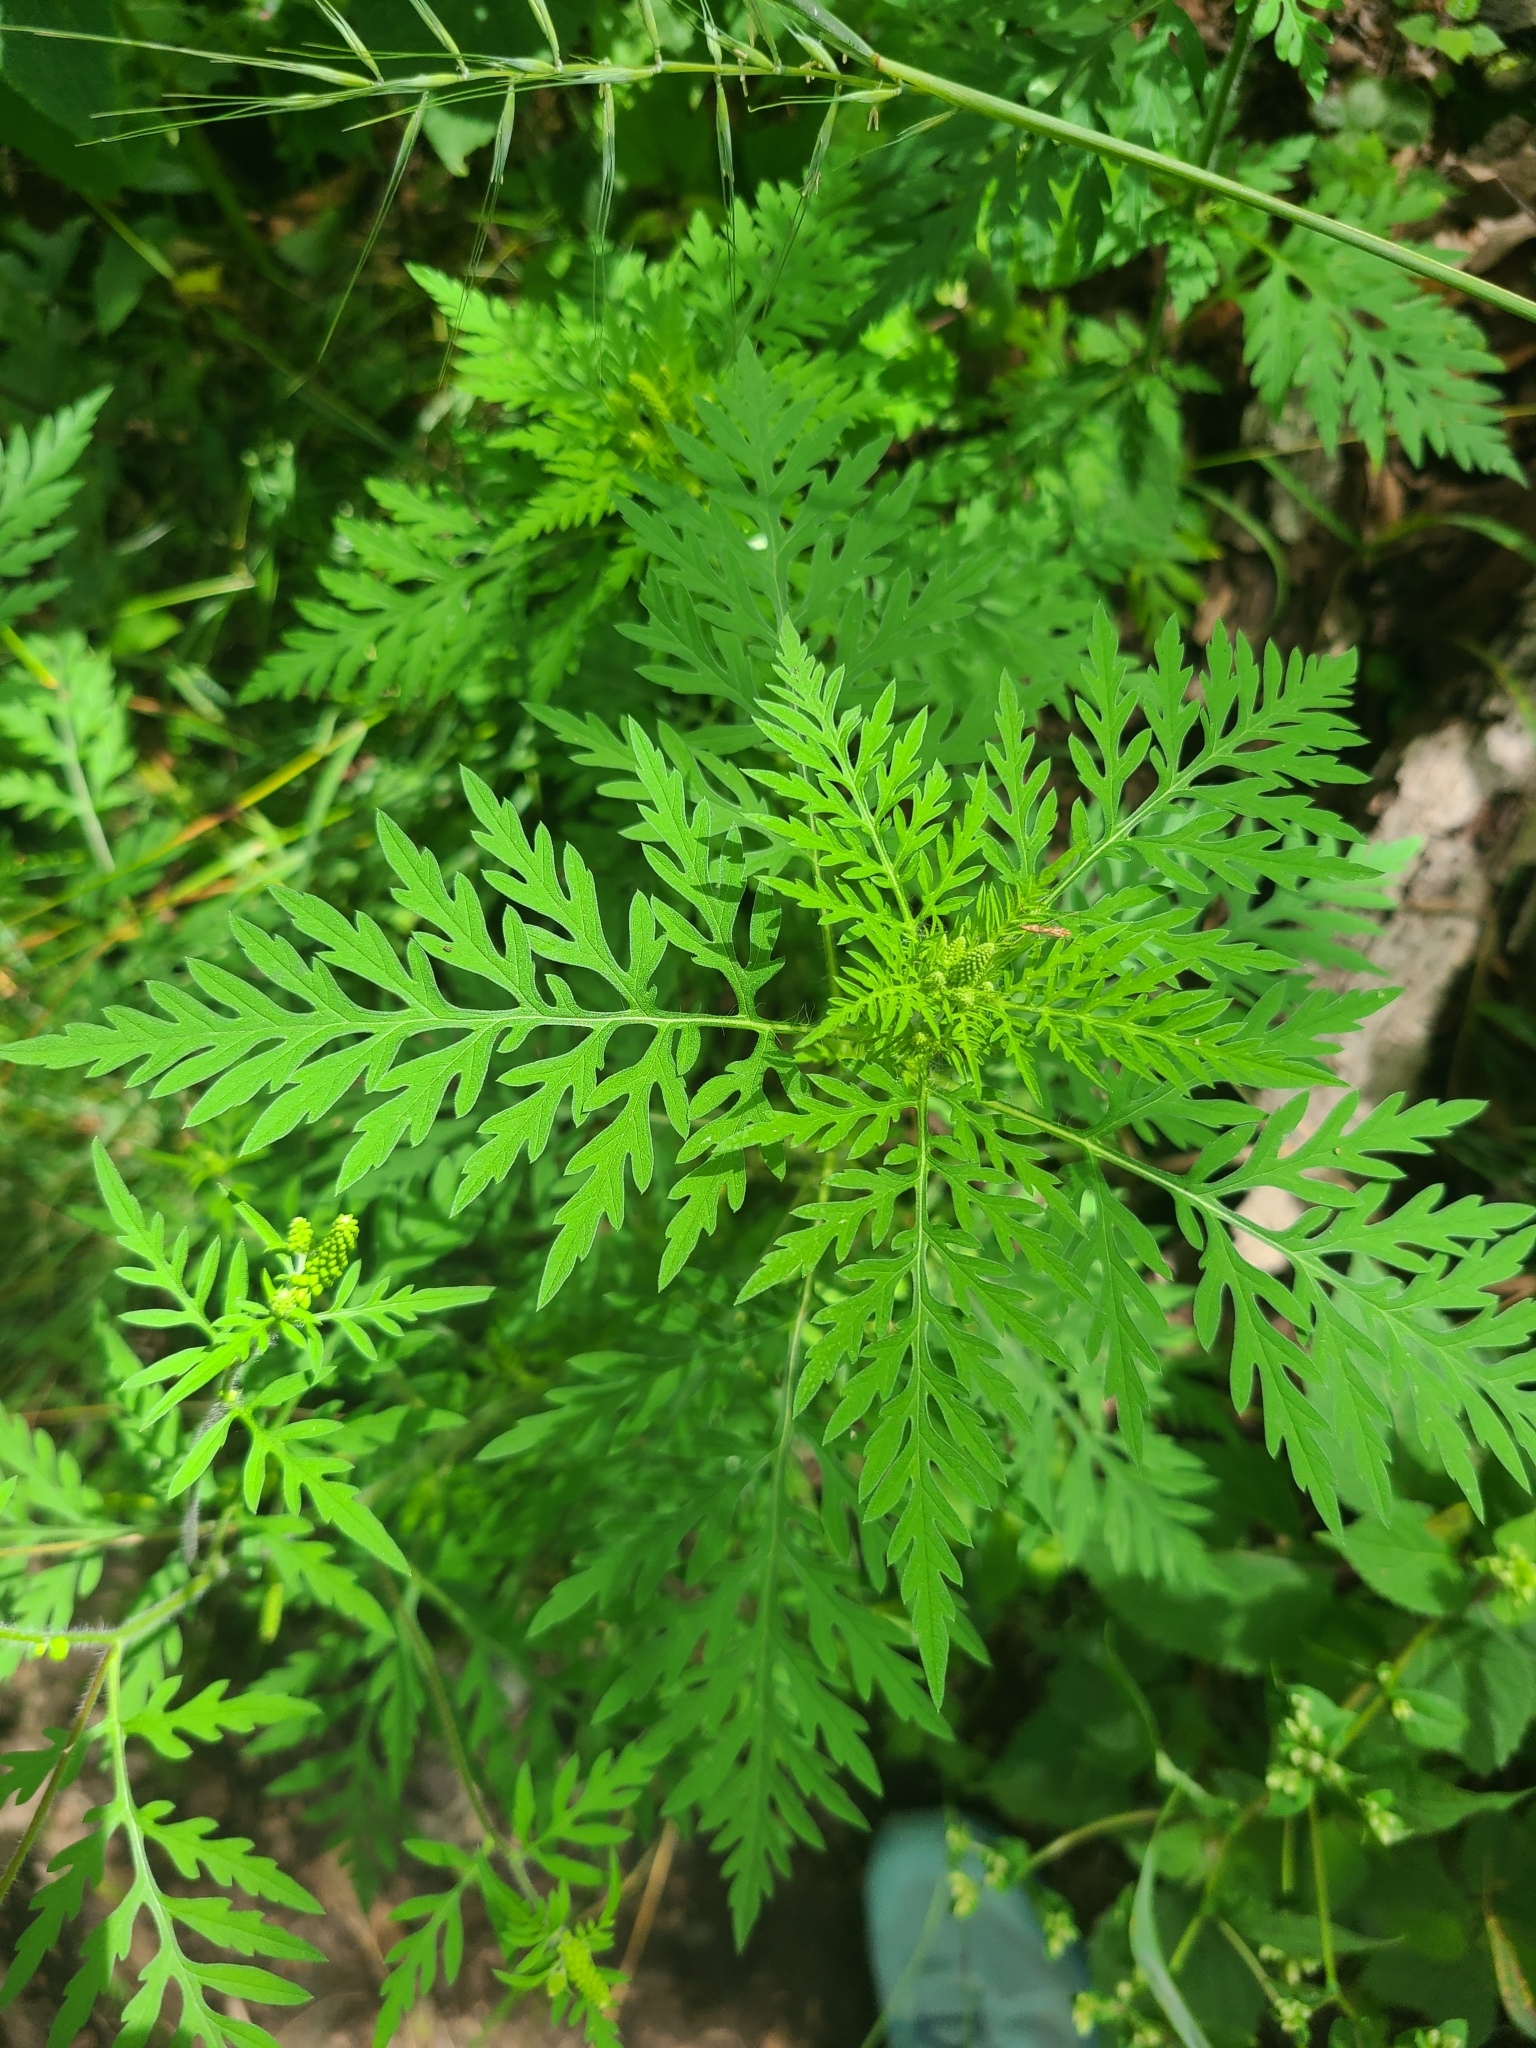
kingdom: Plantae
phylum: Tracheophyta
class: Magnoliopsida
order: Asterales
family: Asteraceae
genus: Ambrosia
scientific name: Ambrosia artemisiifolia
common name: Annual ragweed
